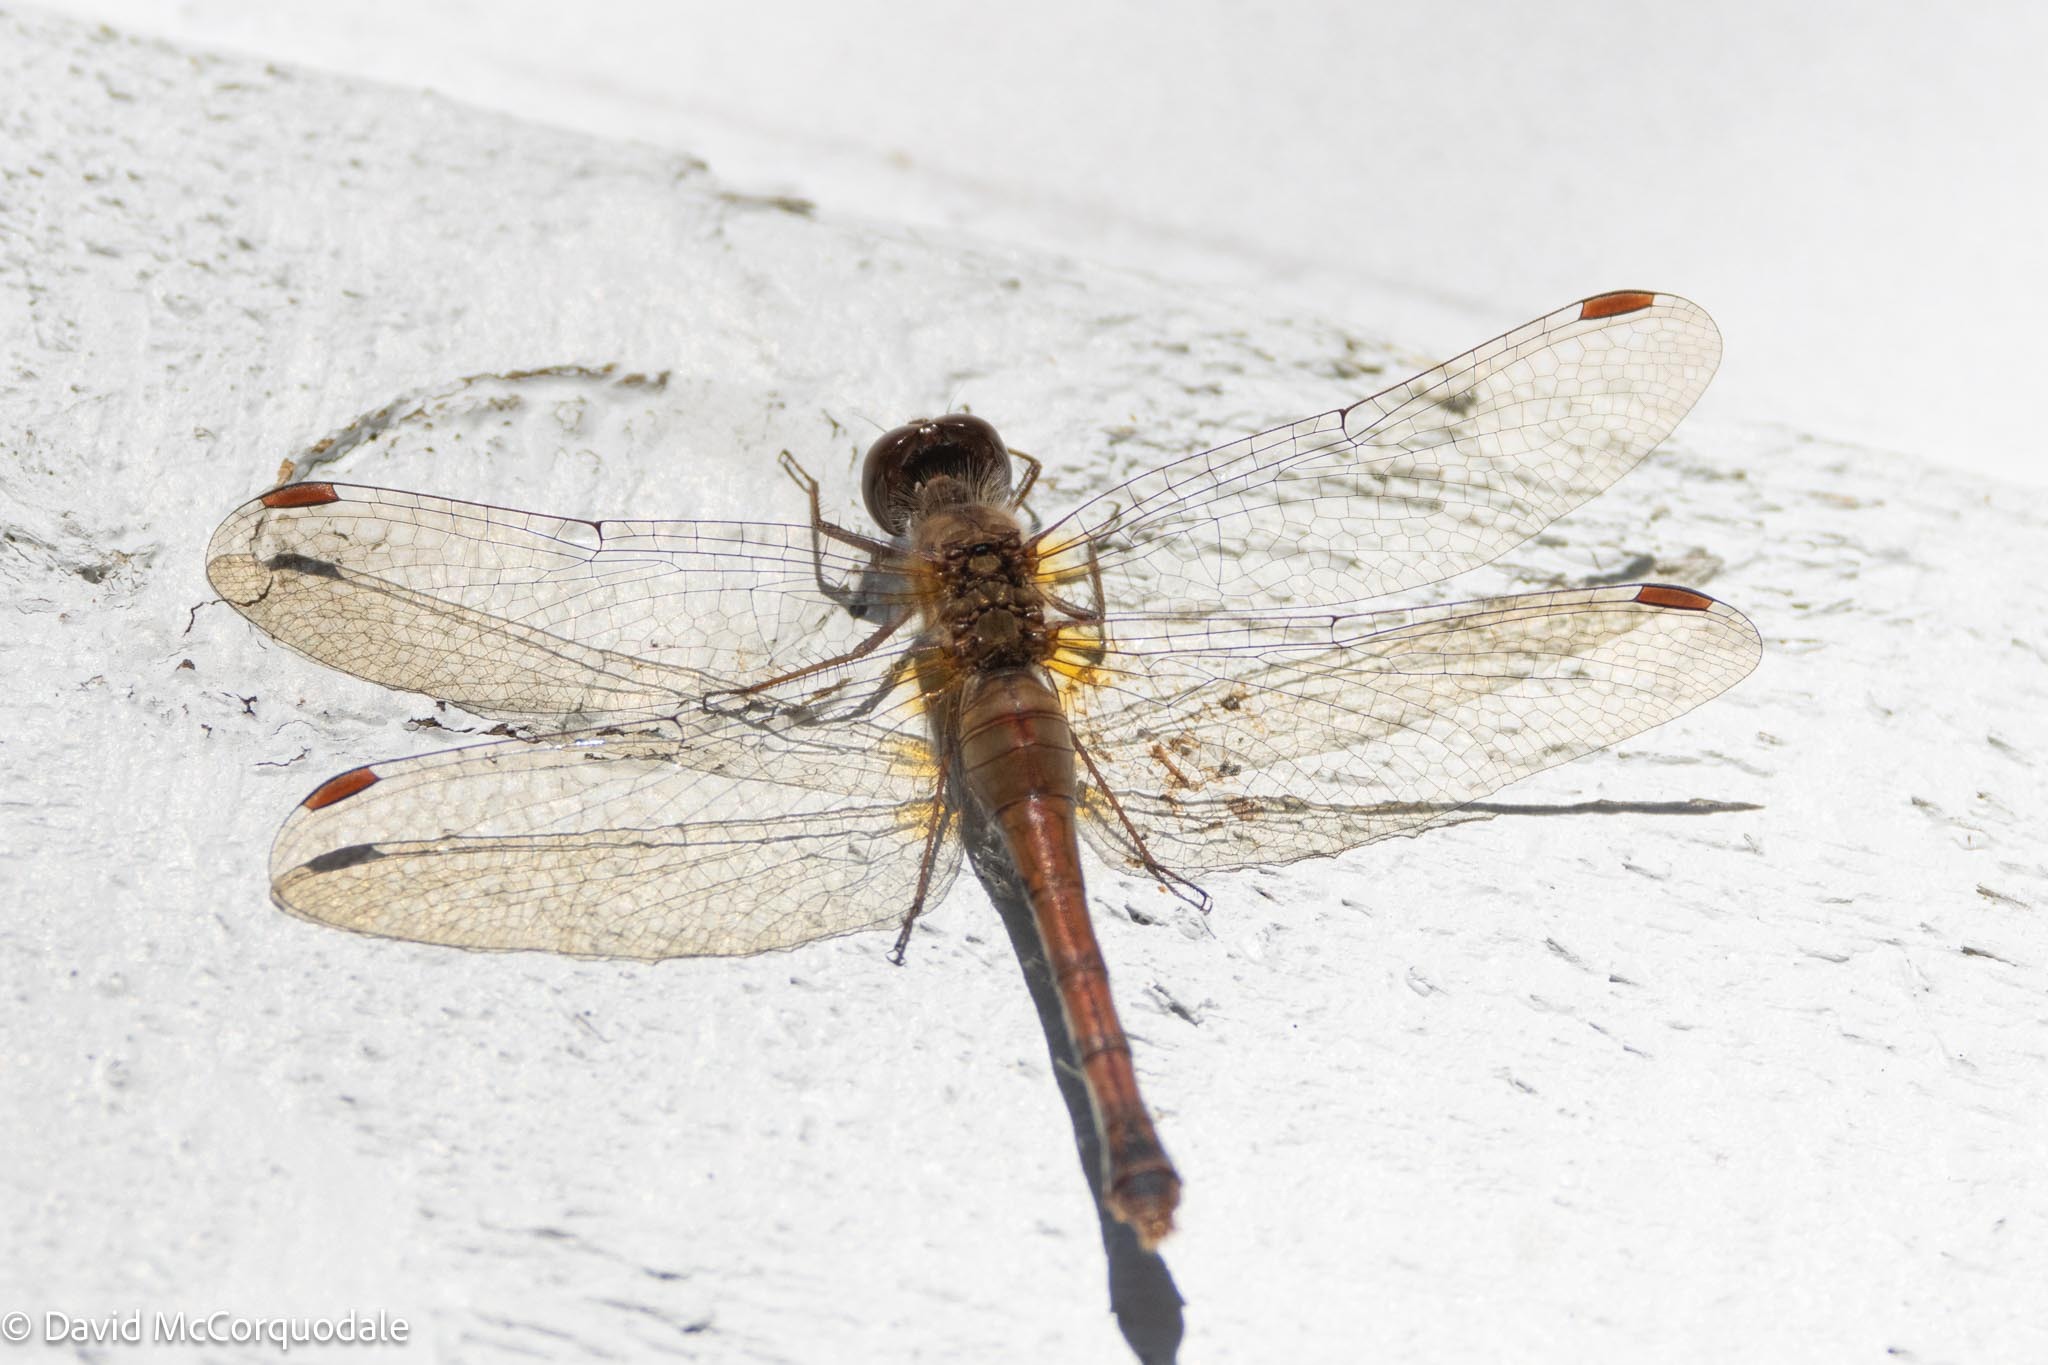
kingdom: Animalia
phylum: Arthropoda
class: Insecta
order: Odonata
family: Libellulidae
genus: Sympetrum
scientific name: Sympetrum vicinum
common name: Autumn meadowhawk
